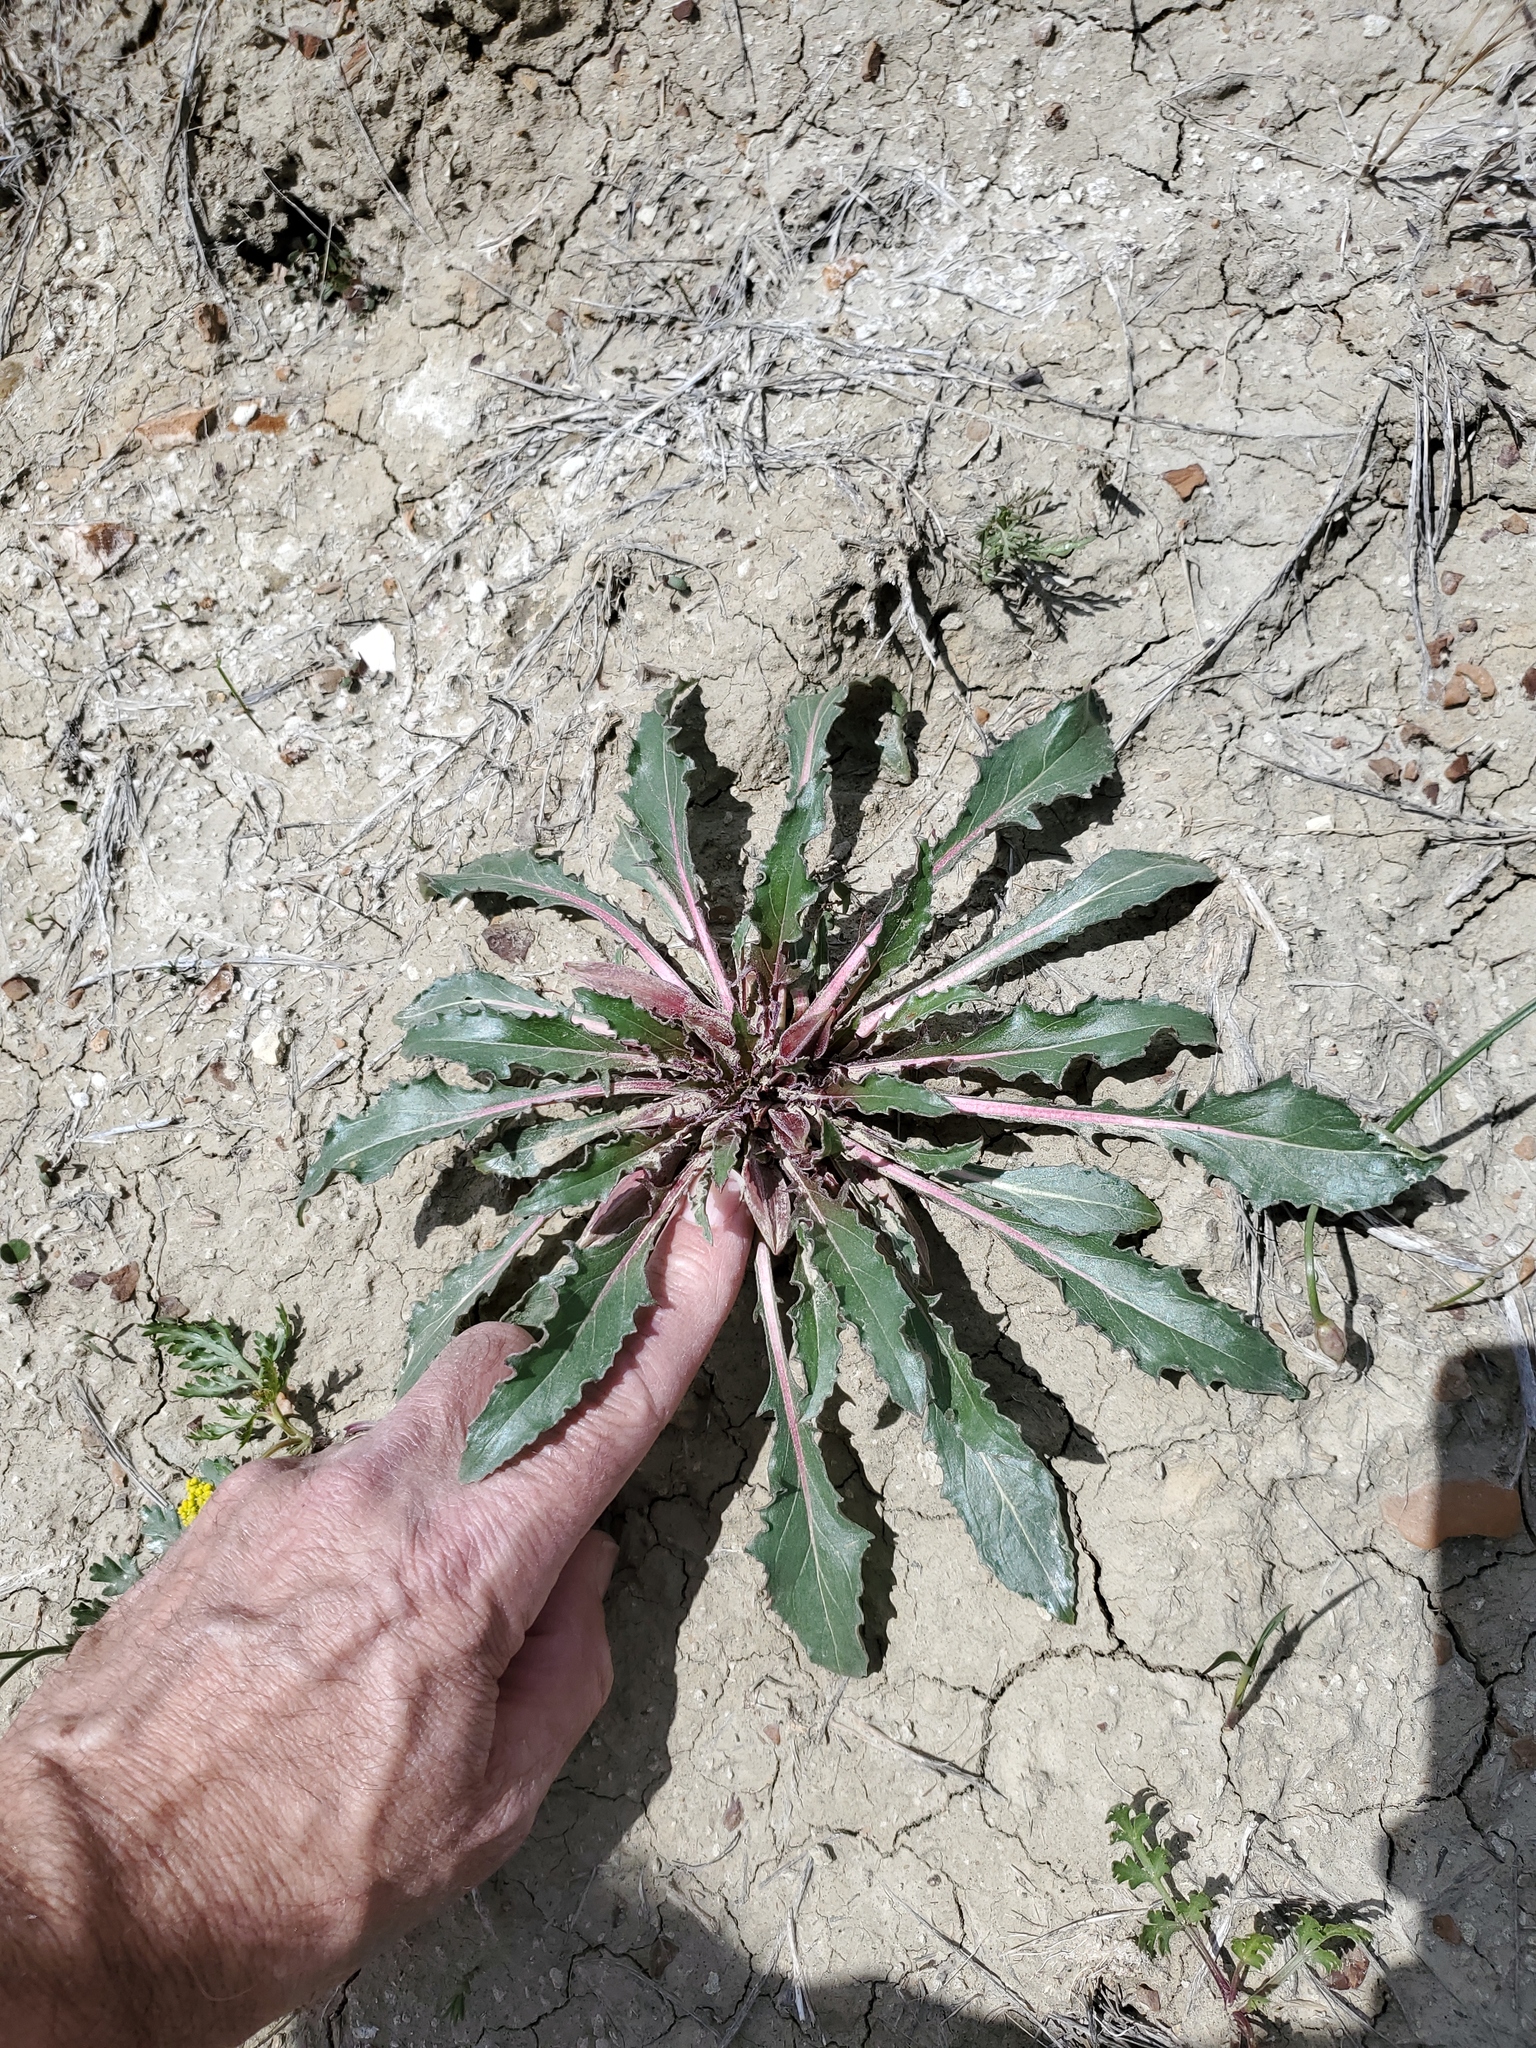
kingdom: Plantae
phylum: Tracheophyta
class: Magnoliopsida
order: Myrtales
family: Onagraceae
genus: Oenothera
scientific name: Oenothera cespitosa
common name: Tufted evening-primrose
